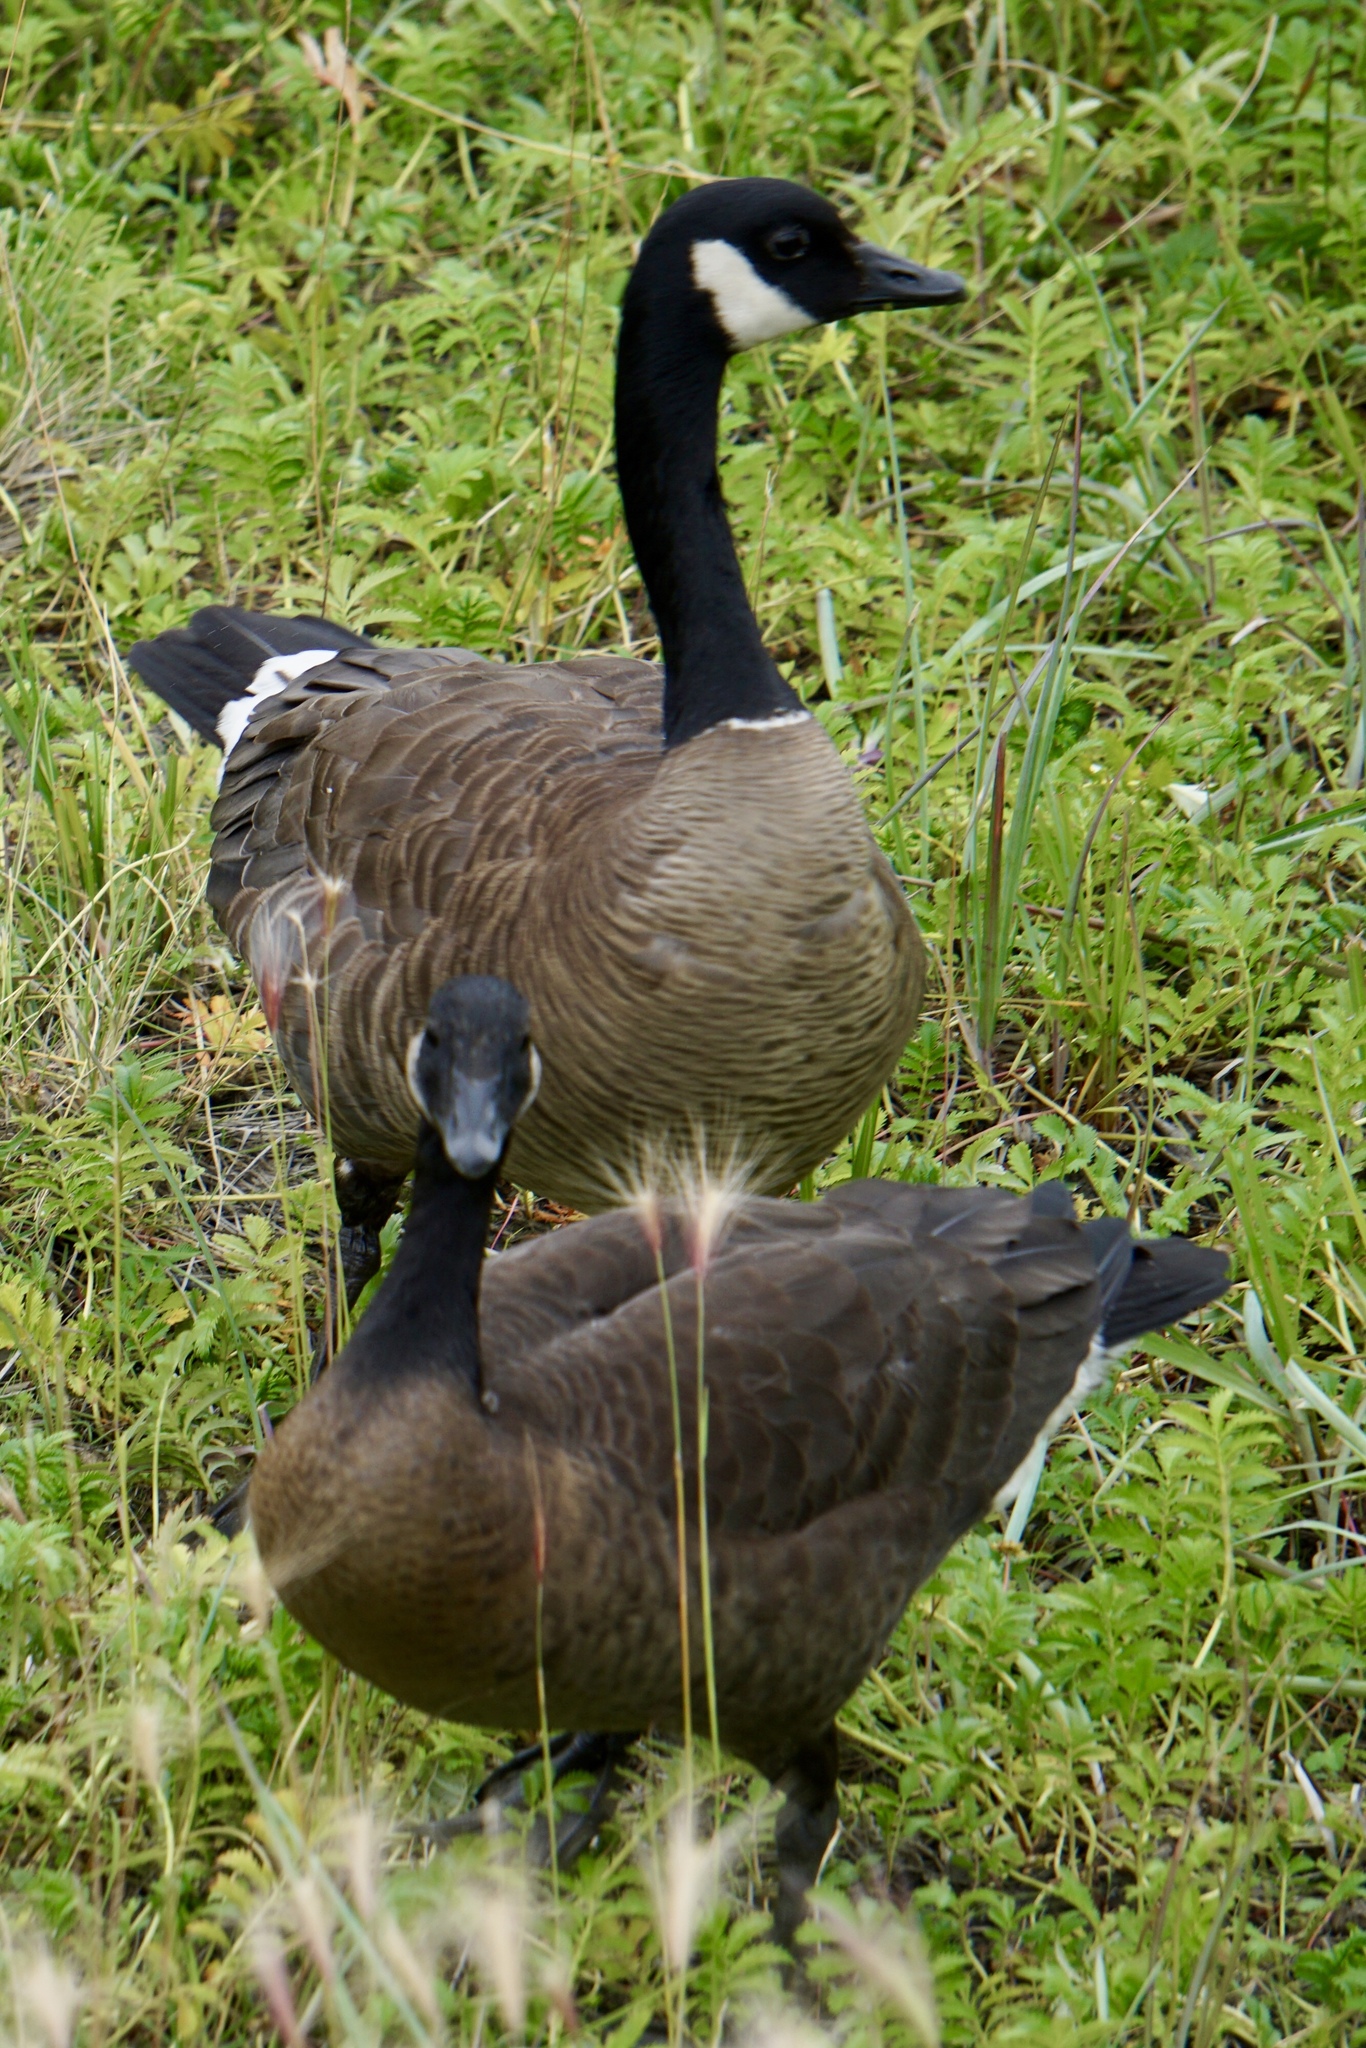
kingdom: Animalia
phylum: Chordata
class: Aves
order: Anseriformes
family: Anatidae
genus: Branta
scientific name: Branta canadensis
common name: Canada goose
